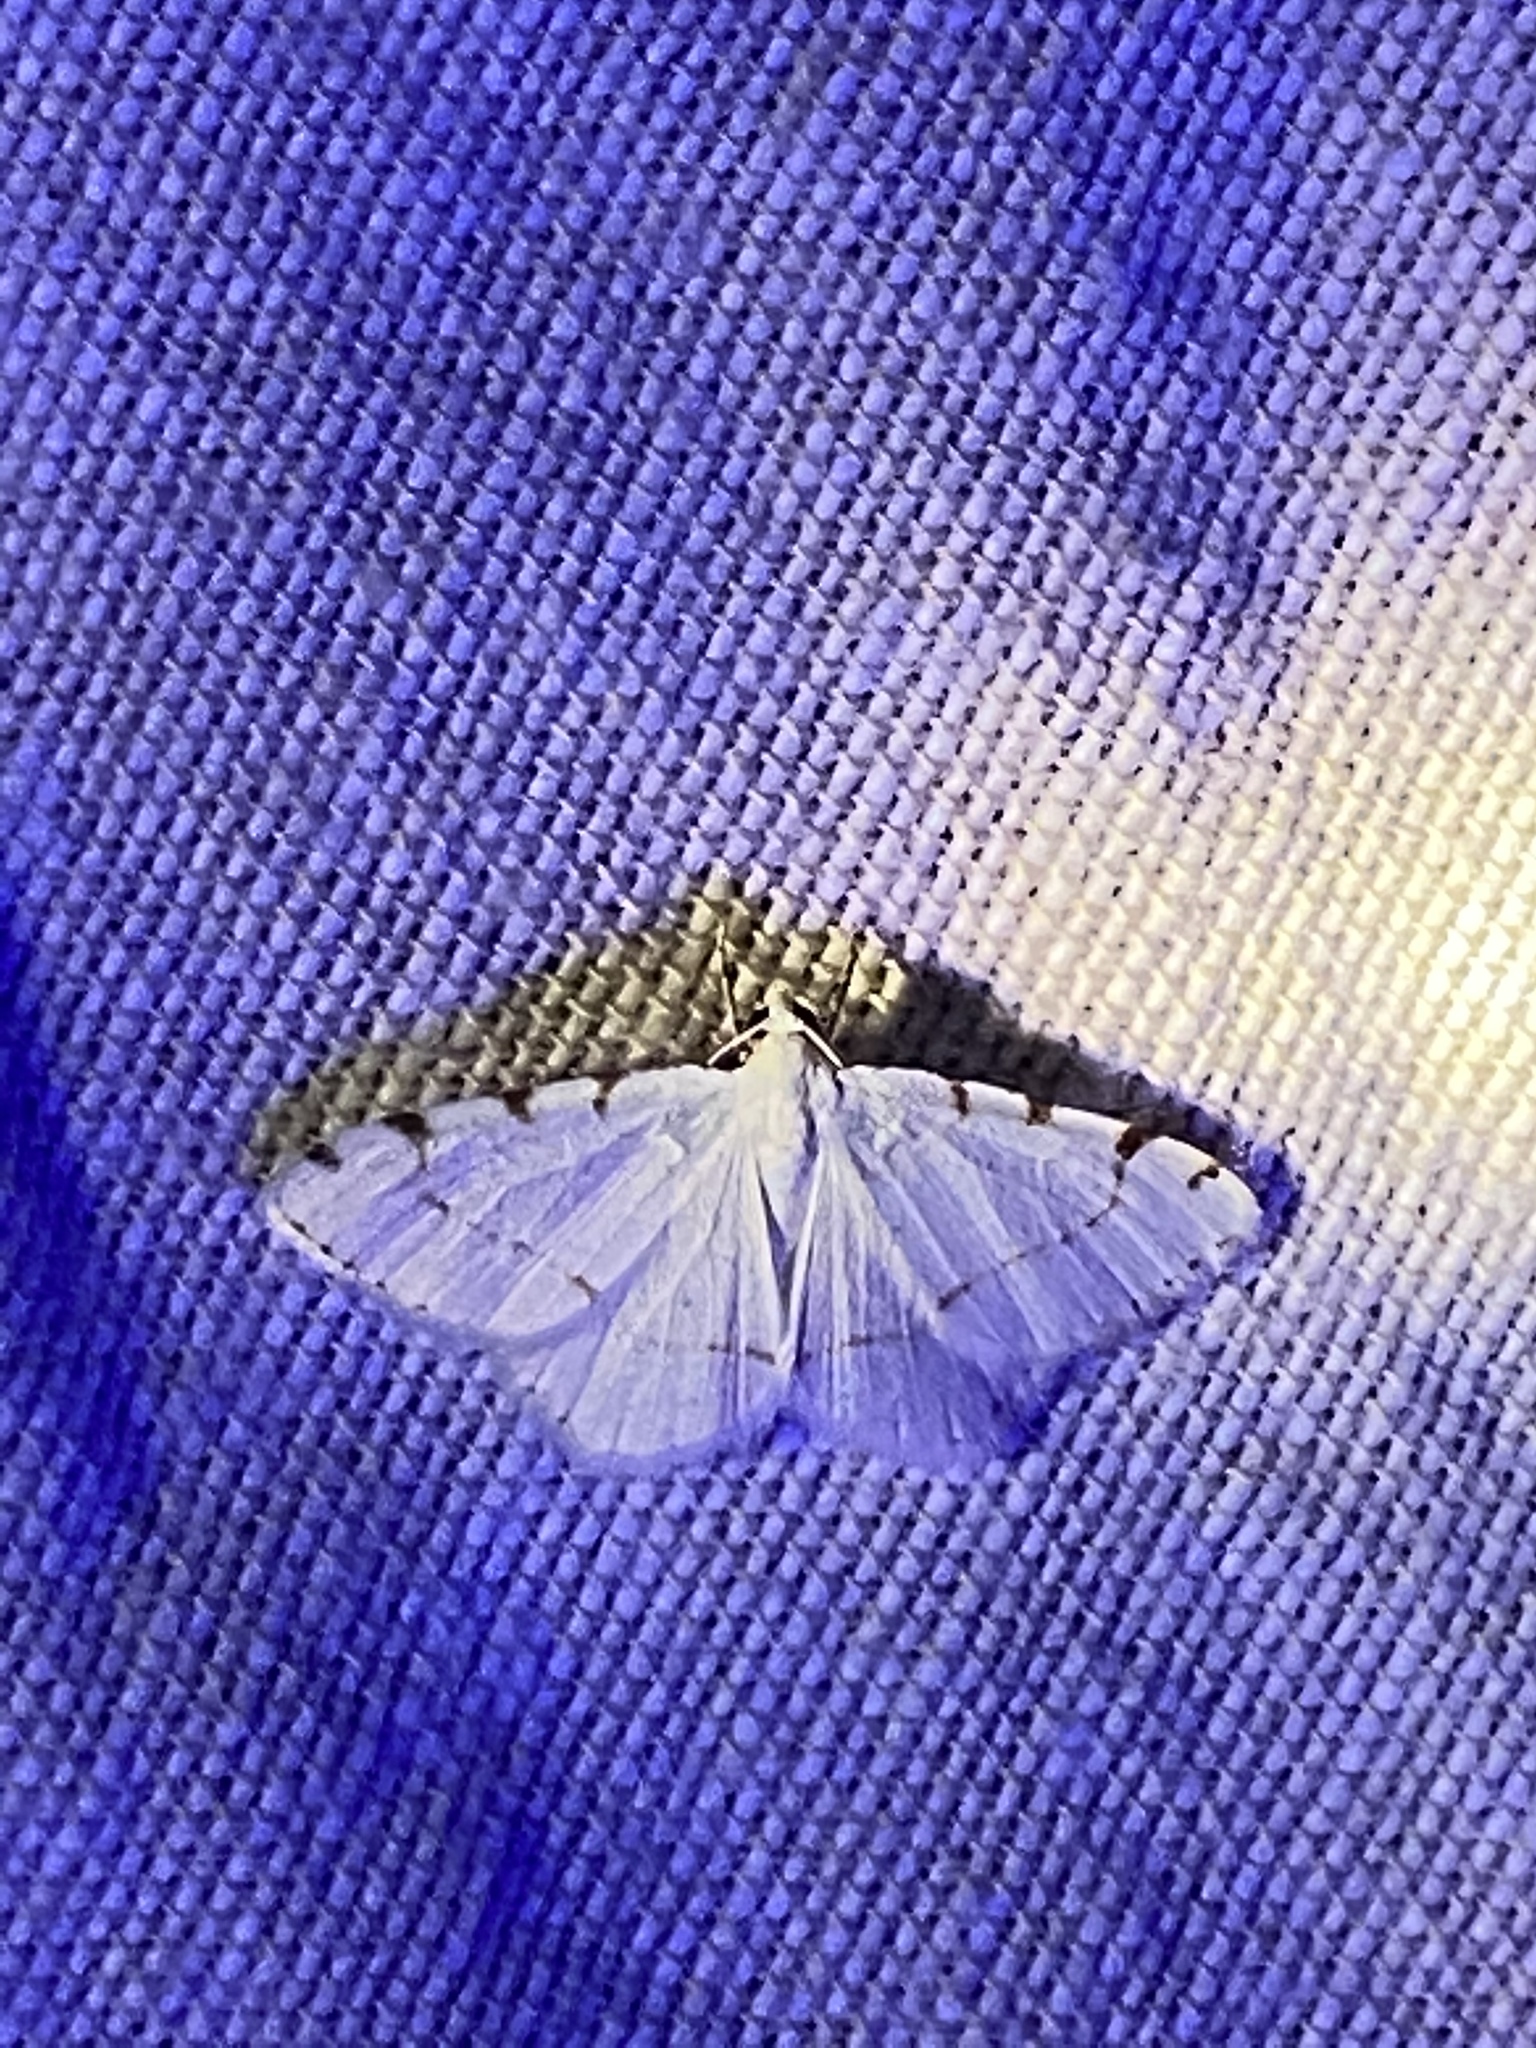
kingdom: Animalia
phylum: Arthropoda
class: Insecta
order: Lepidoptera
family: Geometridae
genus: Macaria
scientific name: Macaria pustularia
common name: Lesser maple spanworm moth
